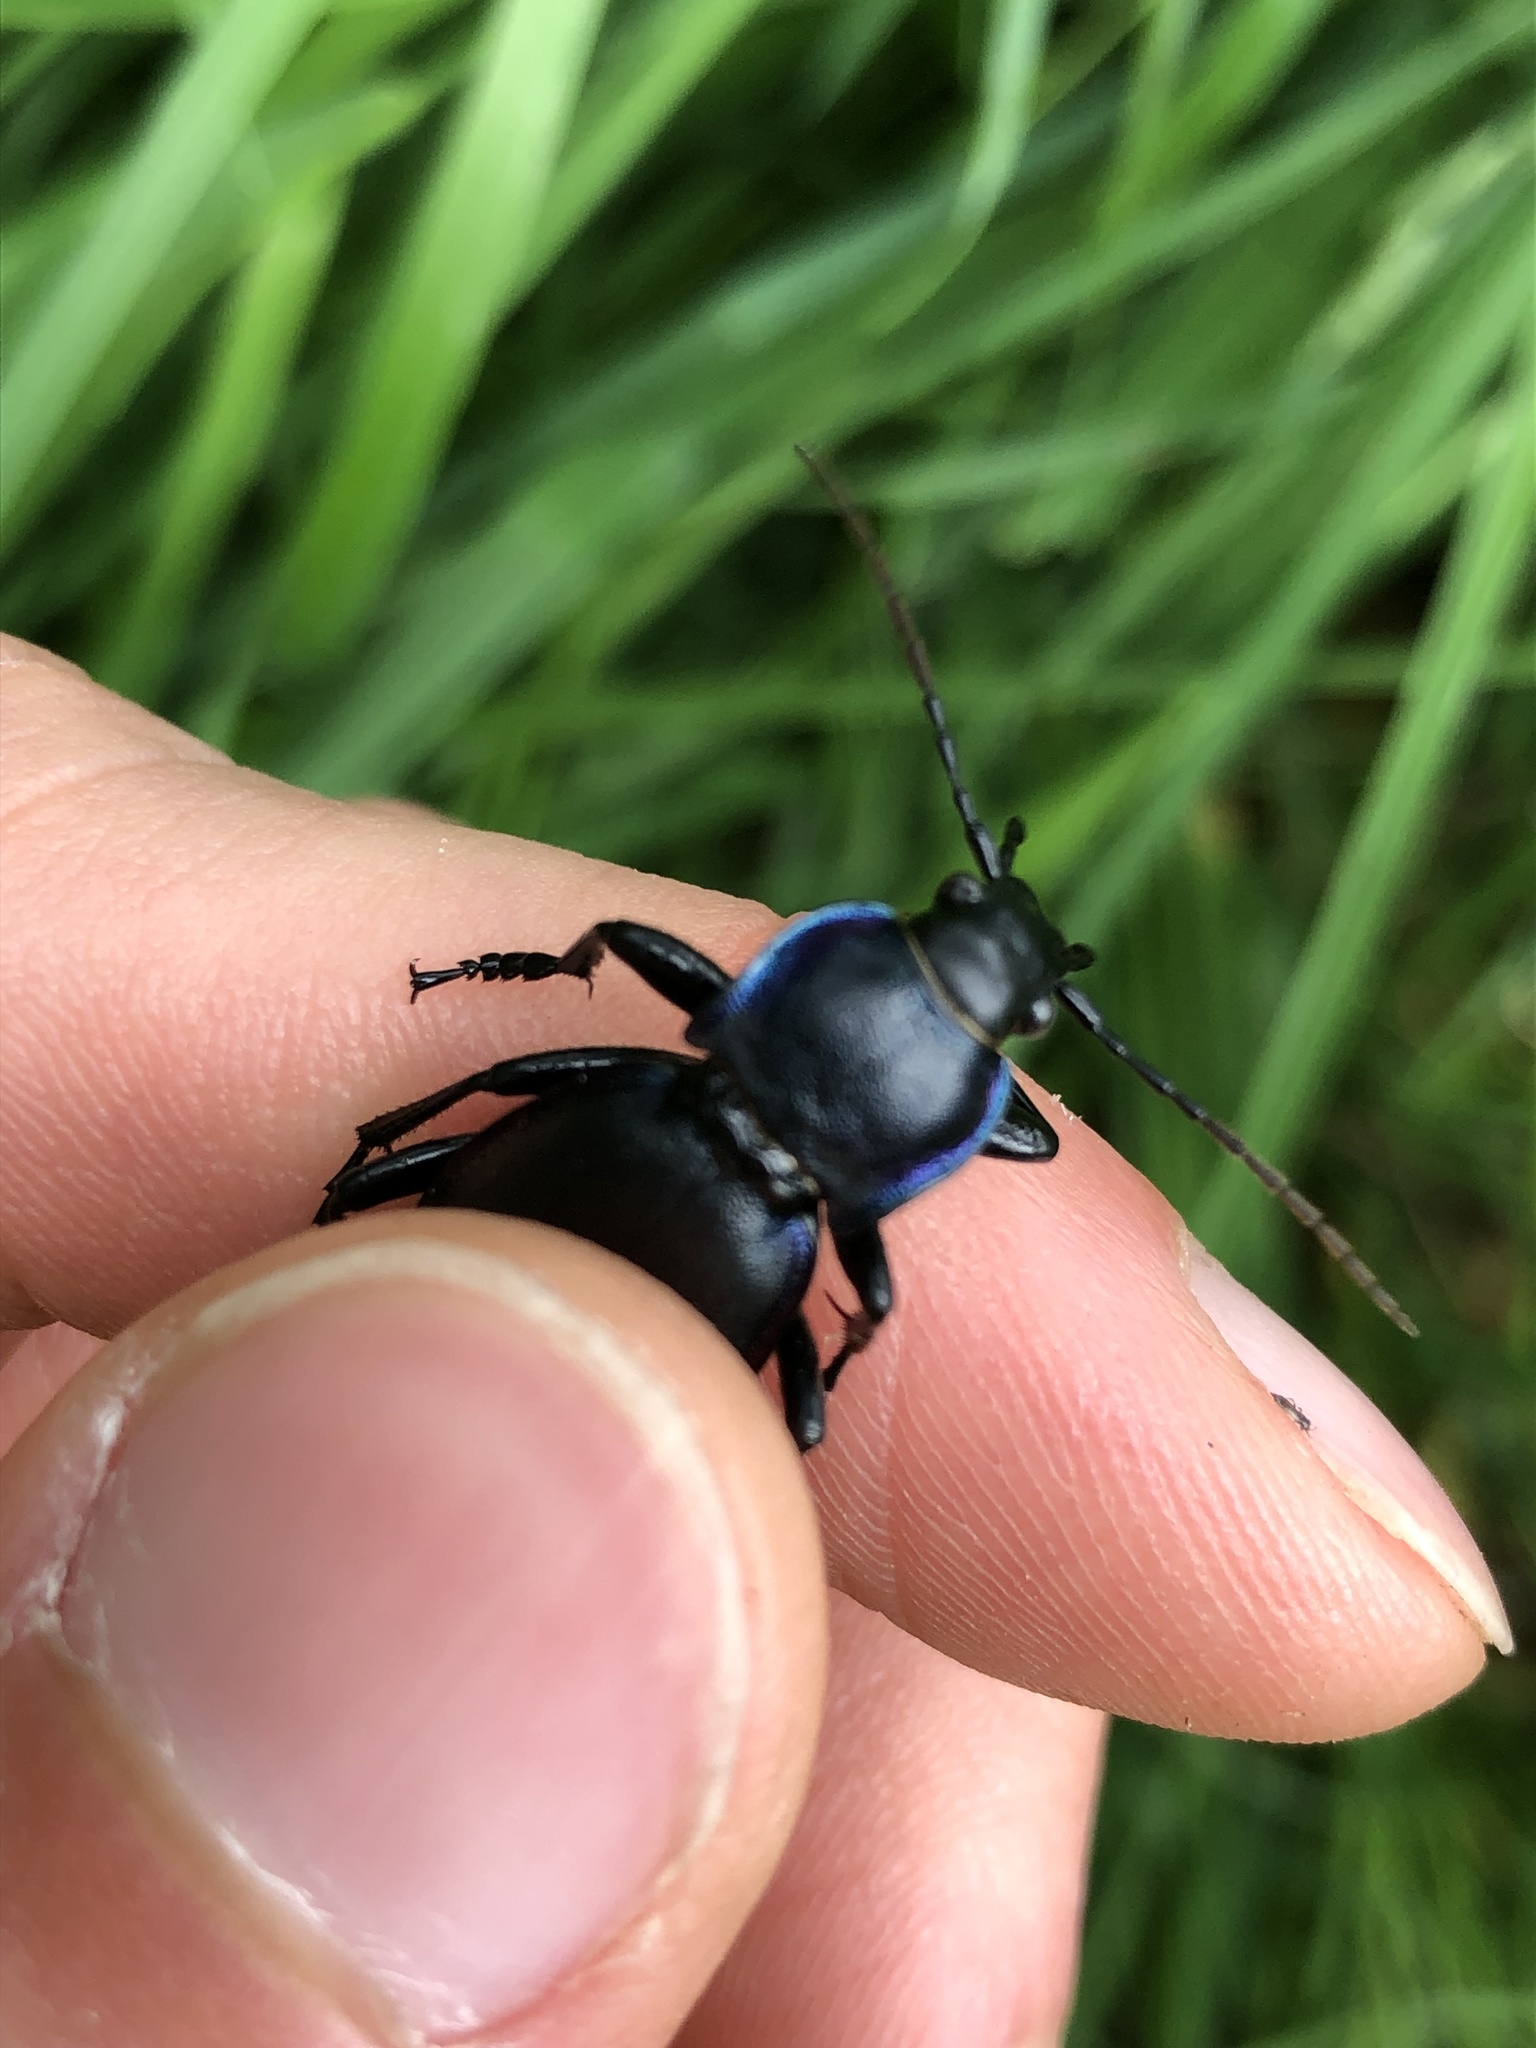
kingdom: Animalia
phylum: Arthropoda
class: Insecta
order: Coleoptera
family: Carabidae
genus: Carabus
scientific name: Carabus violaceus
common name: Violet ground beetle
